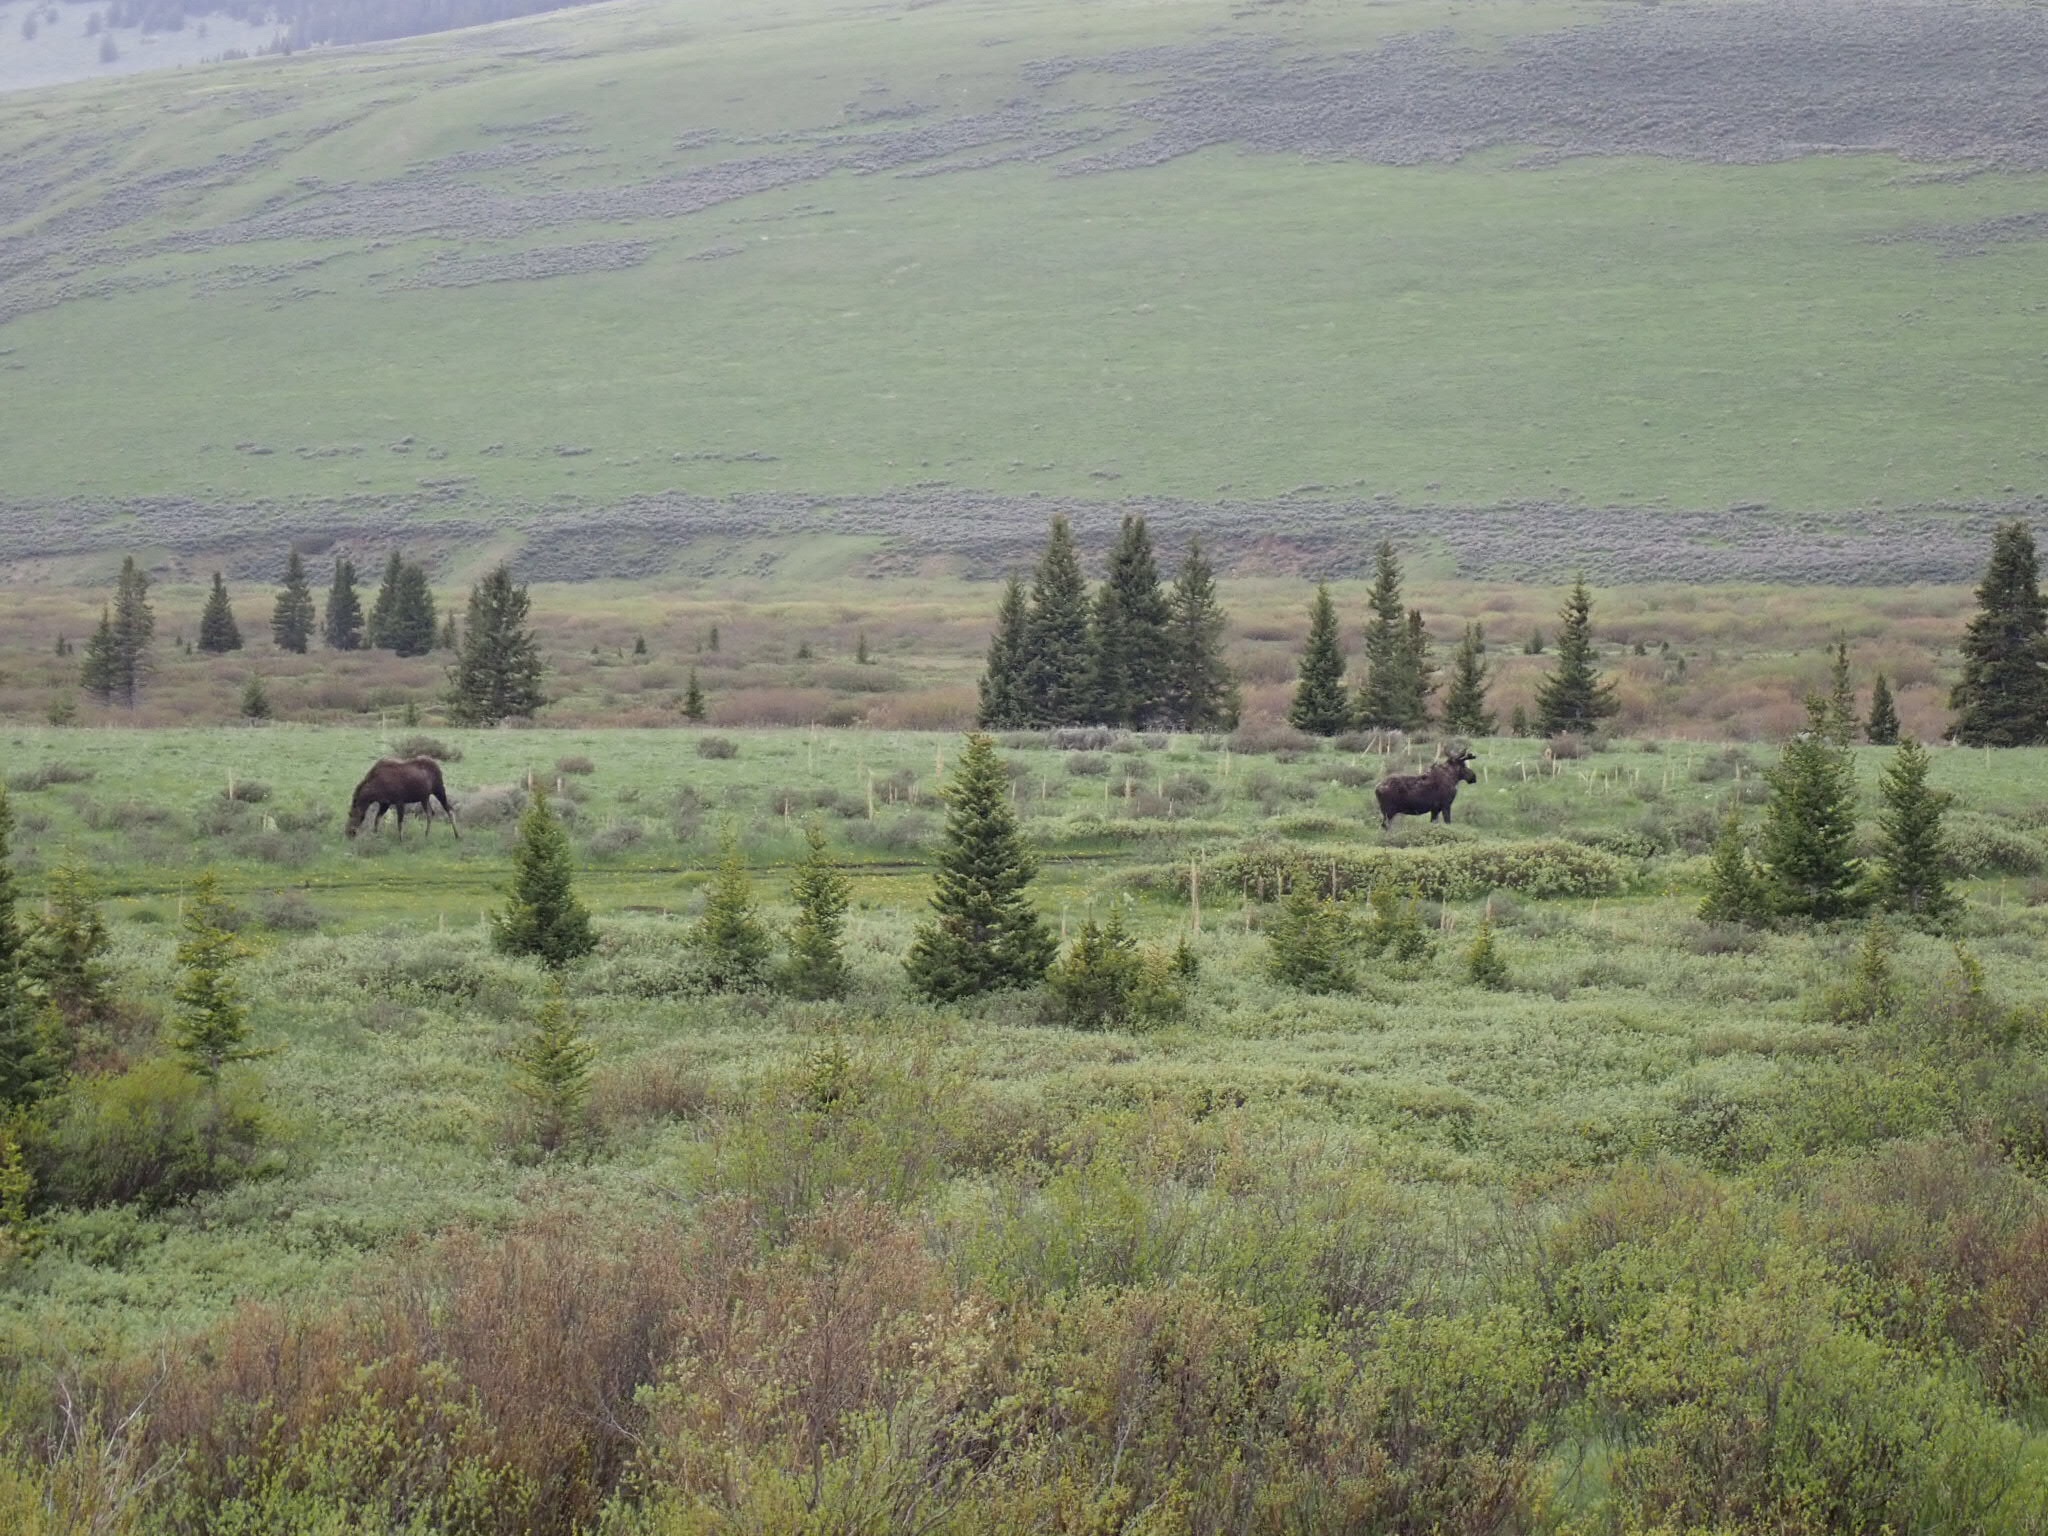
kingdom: Animalia
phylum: Chordata
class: Mammalia
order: Artiodactyla
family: Cervidae
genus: Alces
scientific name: Alces alces
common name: Moose
